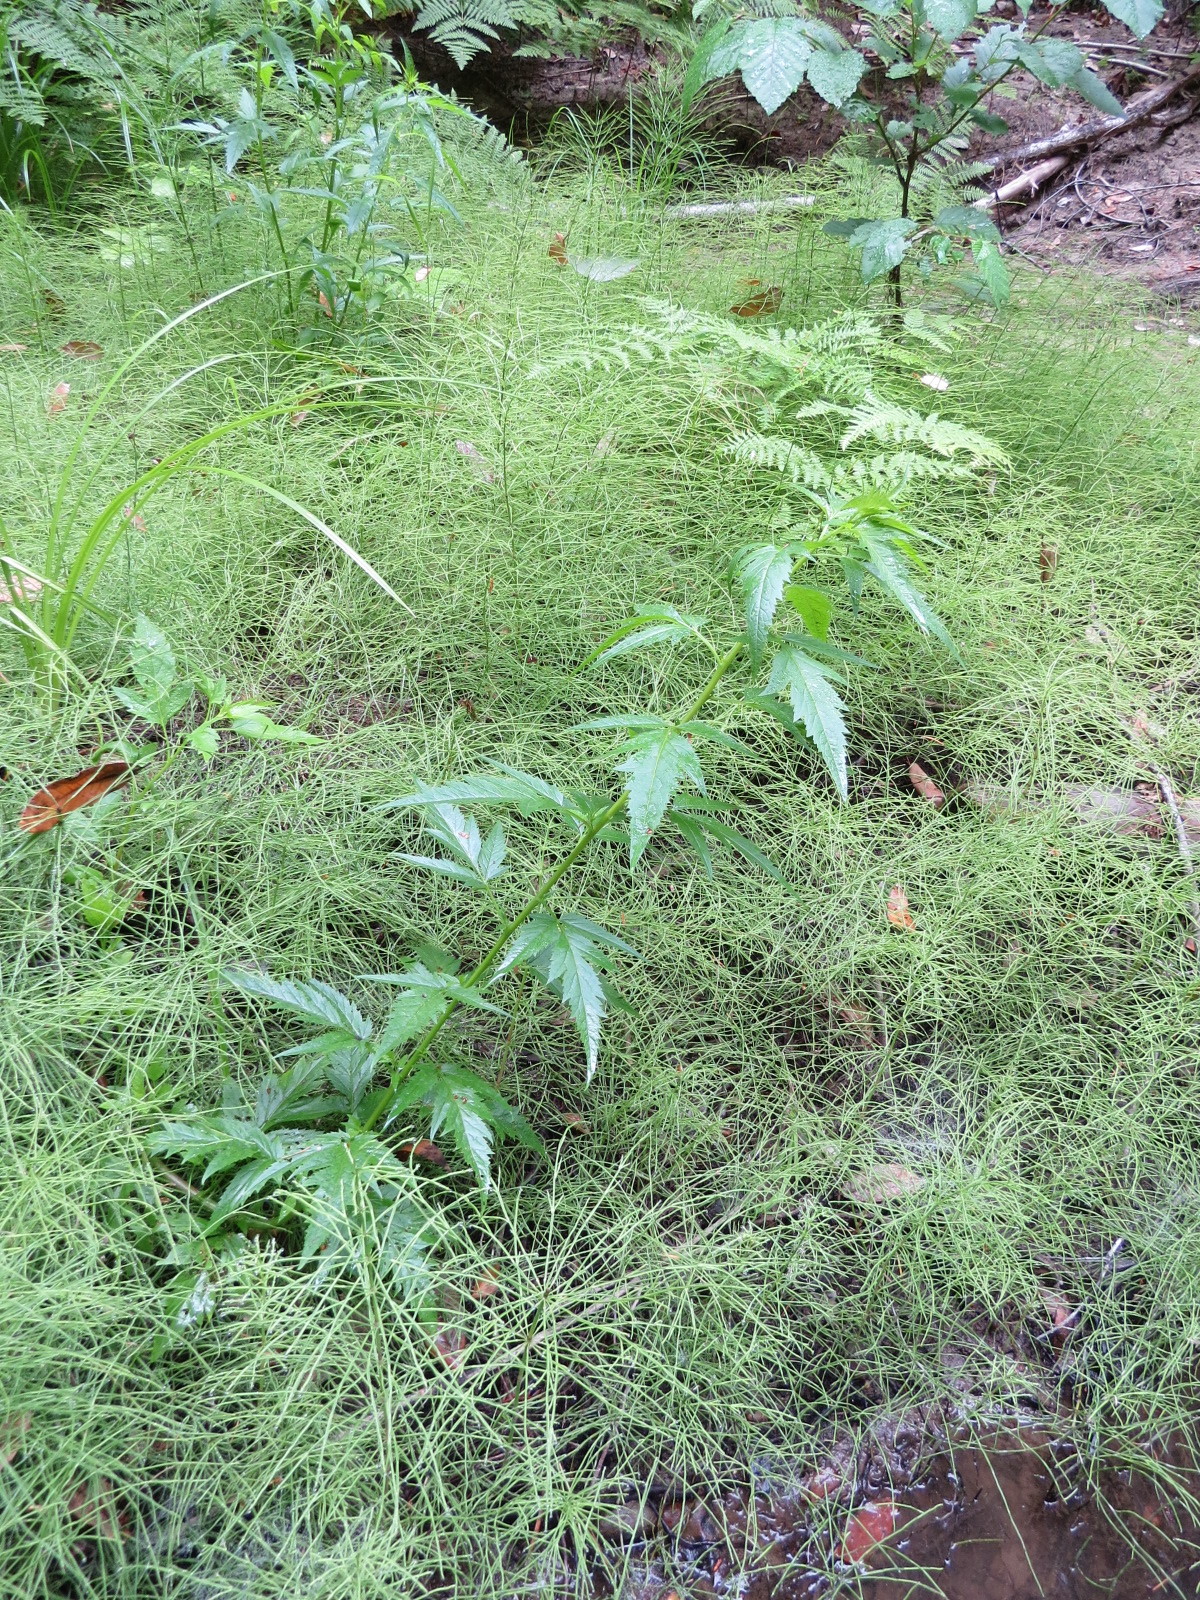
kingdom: Plantae
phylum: Tracheophyta
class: Magnoliopsida
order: Cucurbitales
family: Datiscaceae
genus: Datisca
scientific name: Datisca glomerata
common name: Durango-root
